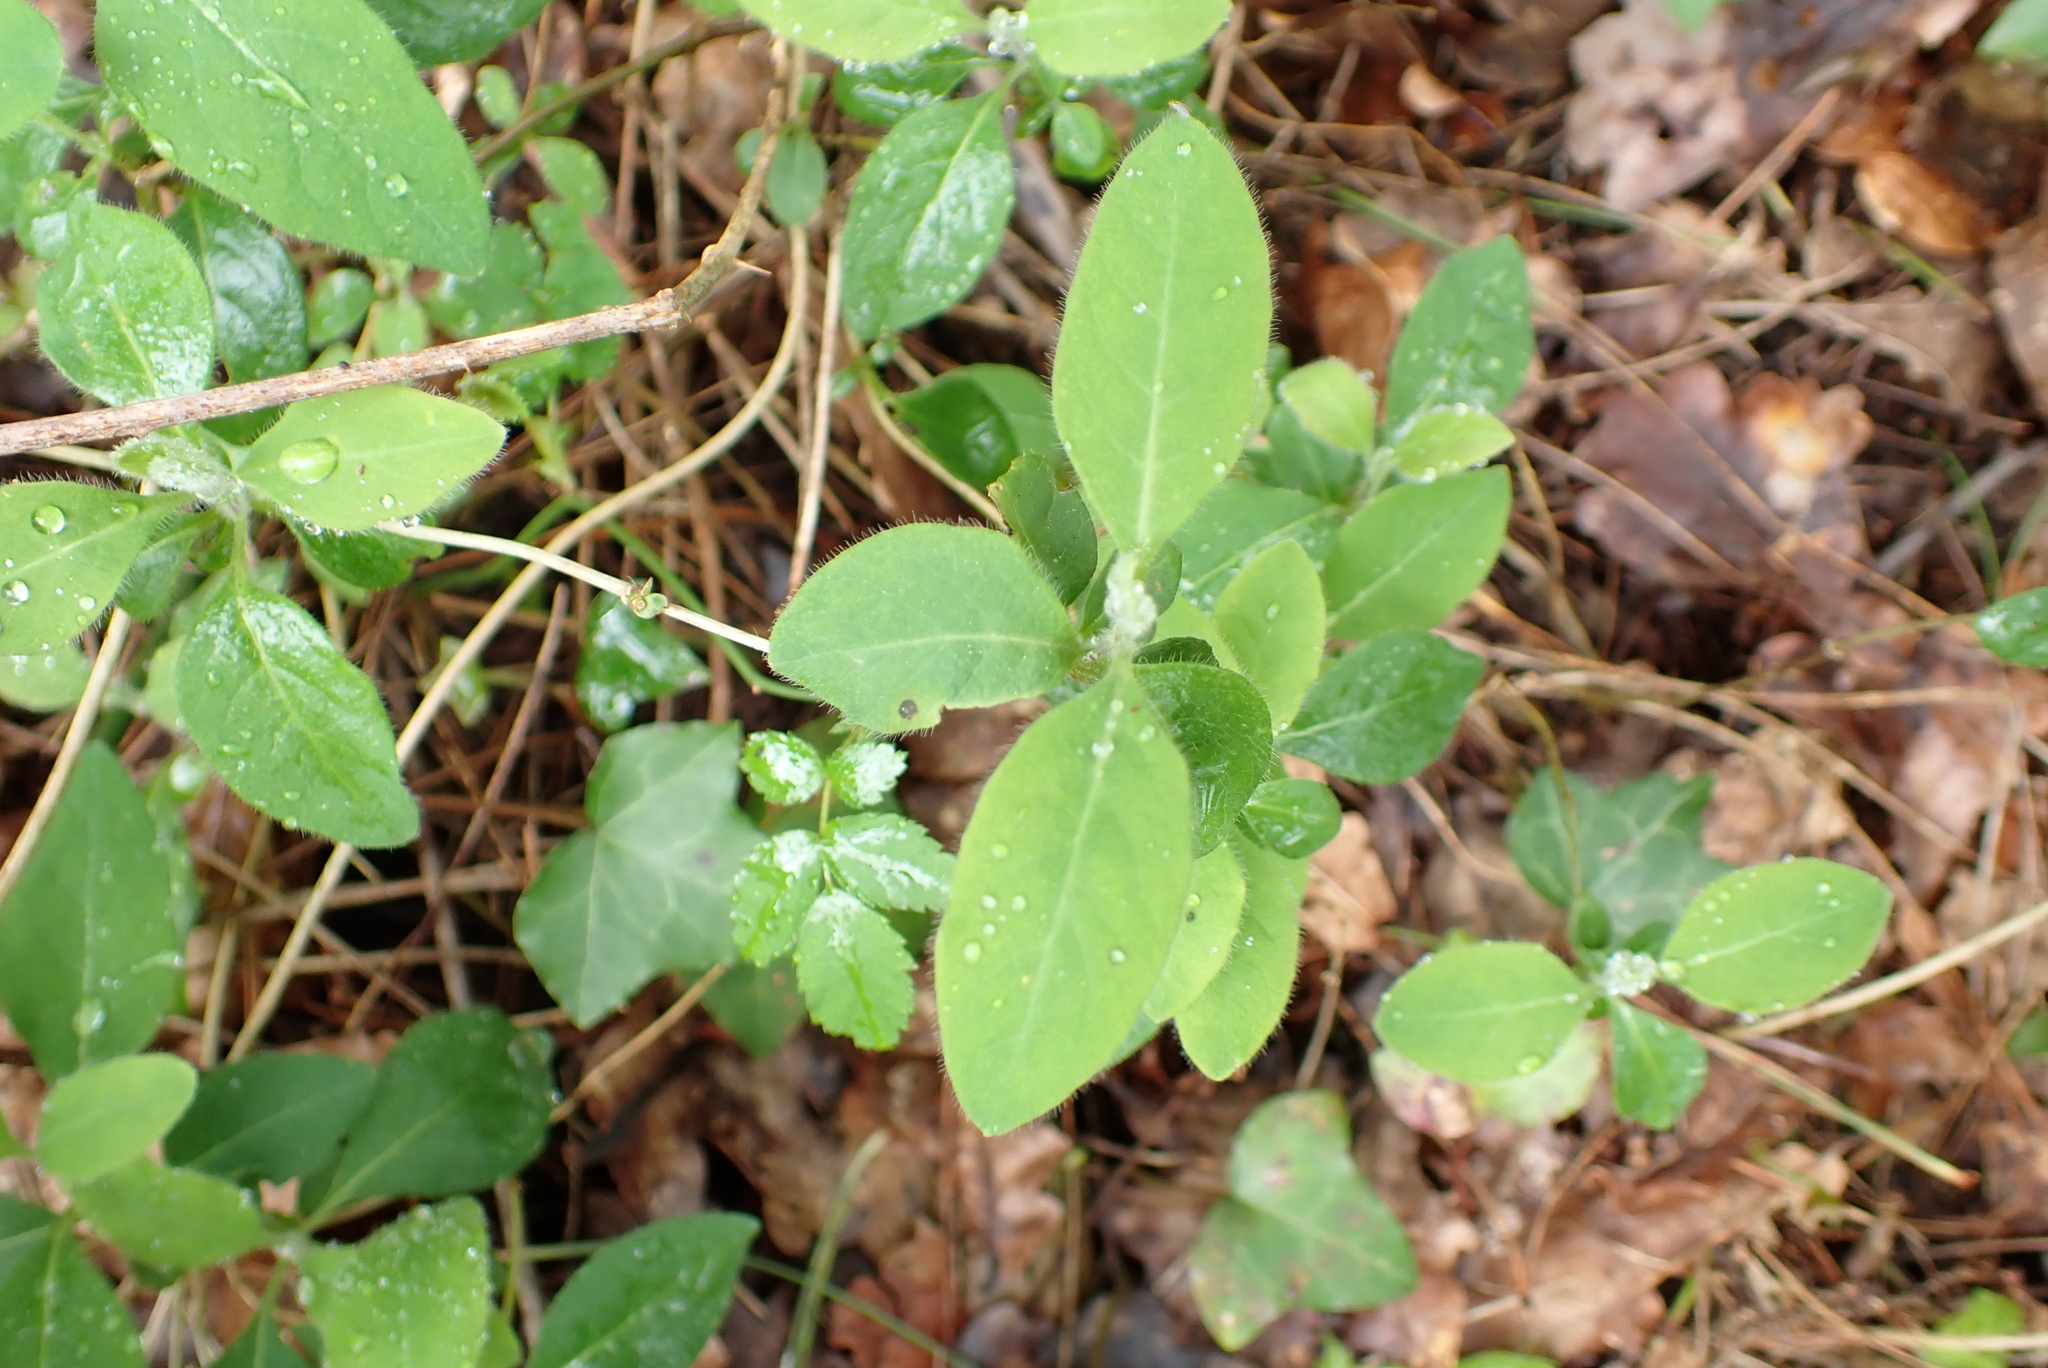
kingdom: Plantae
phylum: Tracheophyta
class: Magnoliopsida
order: Dipsacales
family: Caprifoliaceae
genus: Lonicera
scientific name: Lonicera periclymenum
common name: European honeysuckle
